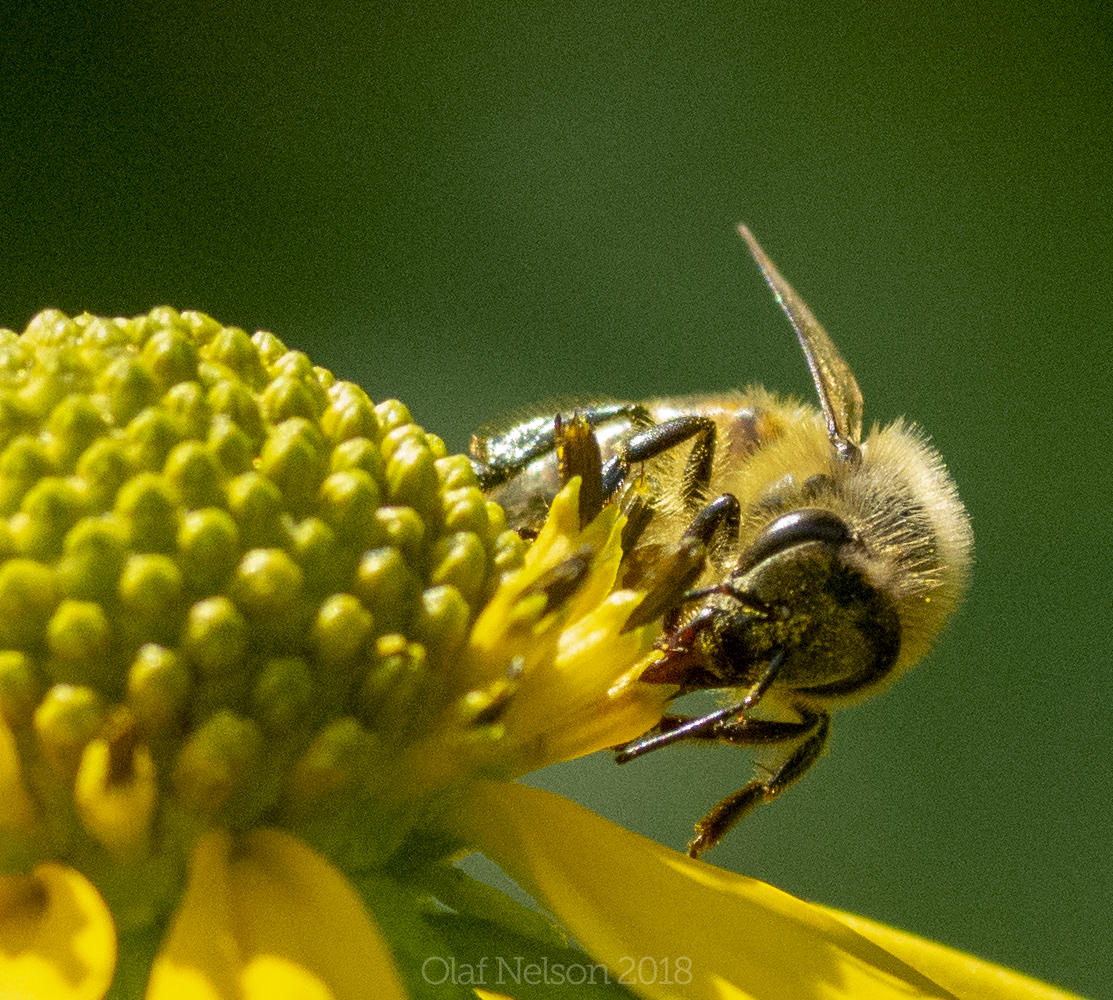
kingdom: Animalia
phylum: Arthropoda
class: Insecta
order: Hymenoptera
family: Apidae
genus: Apis
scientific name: Apis mellifera
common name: Honey bee
